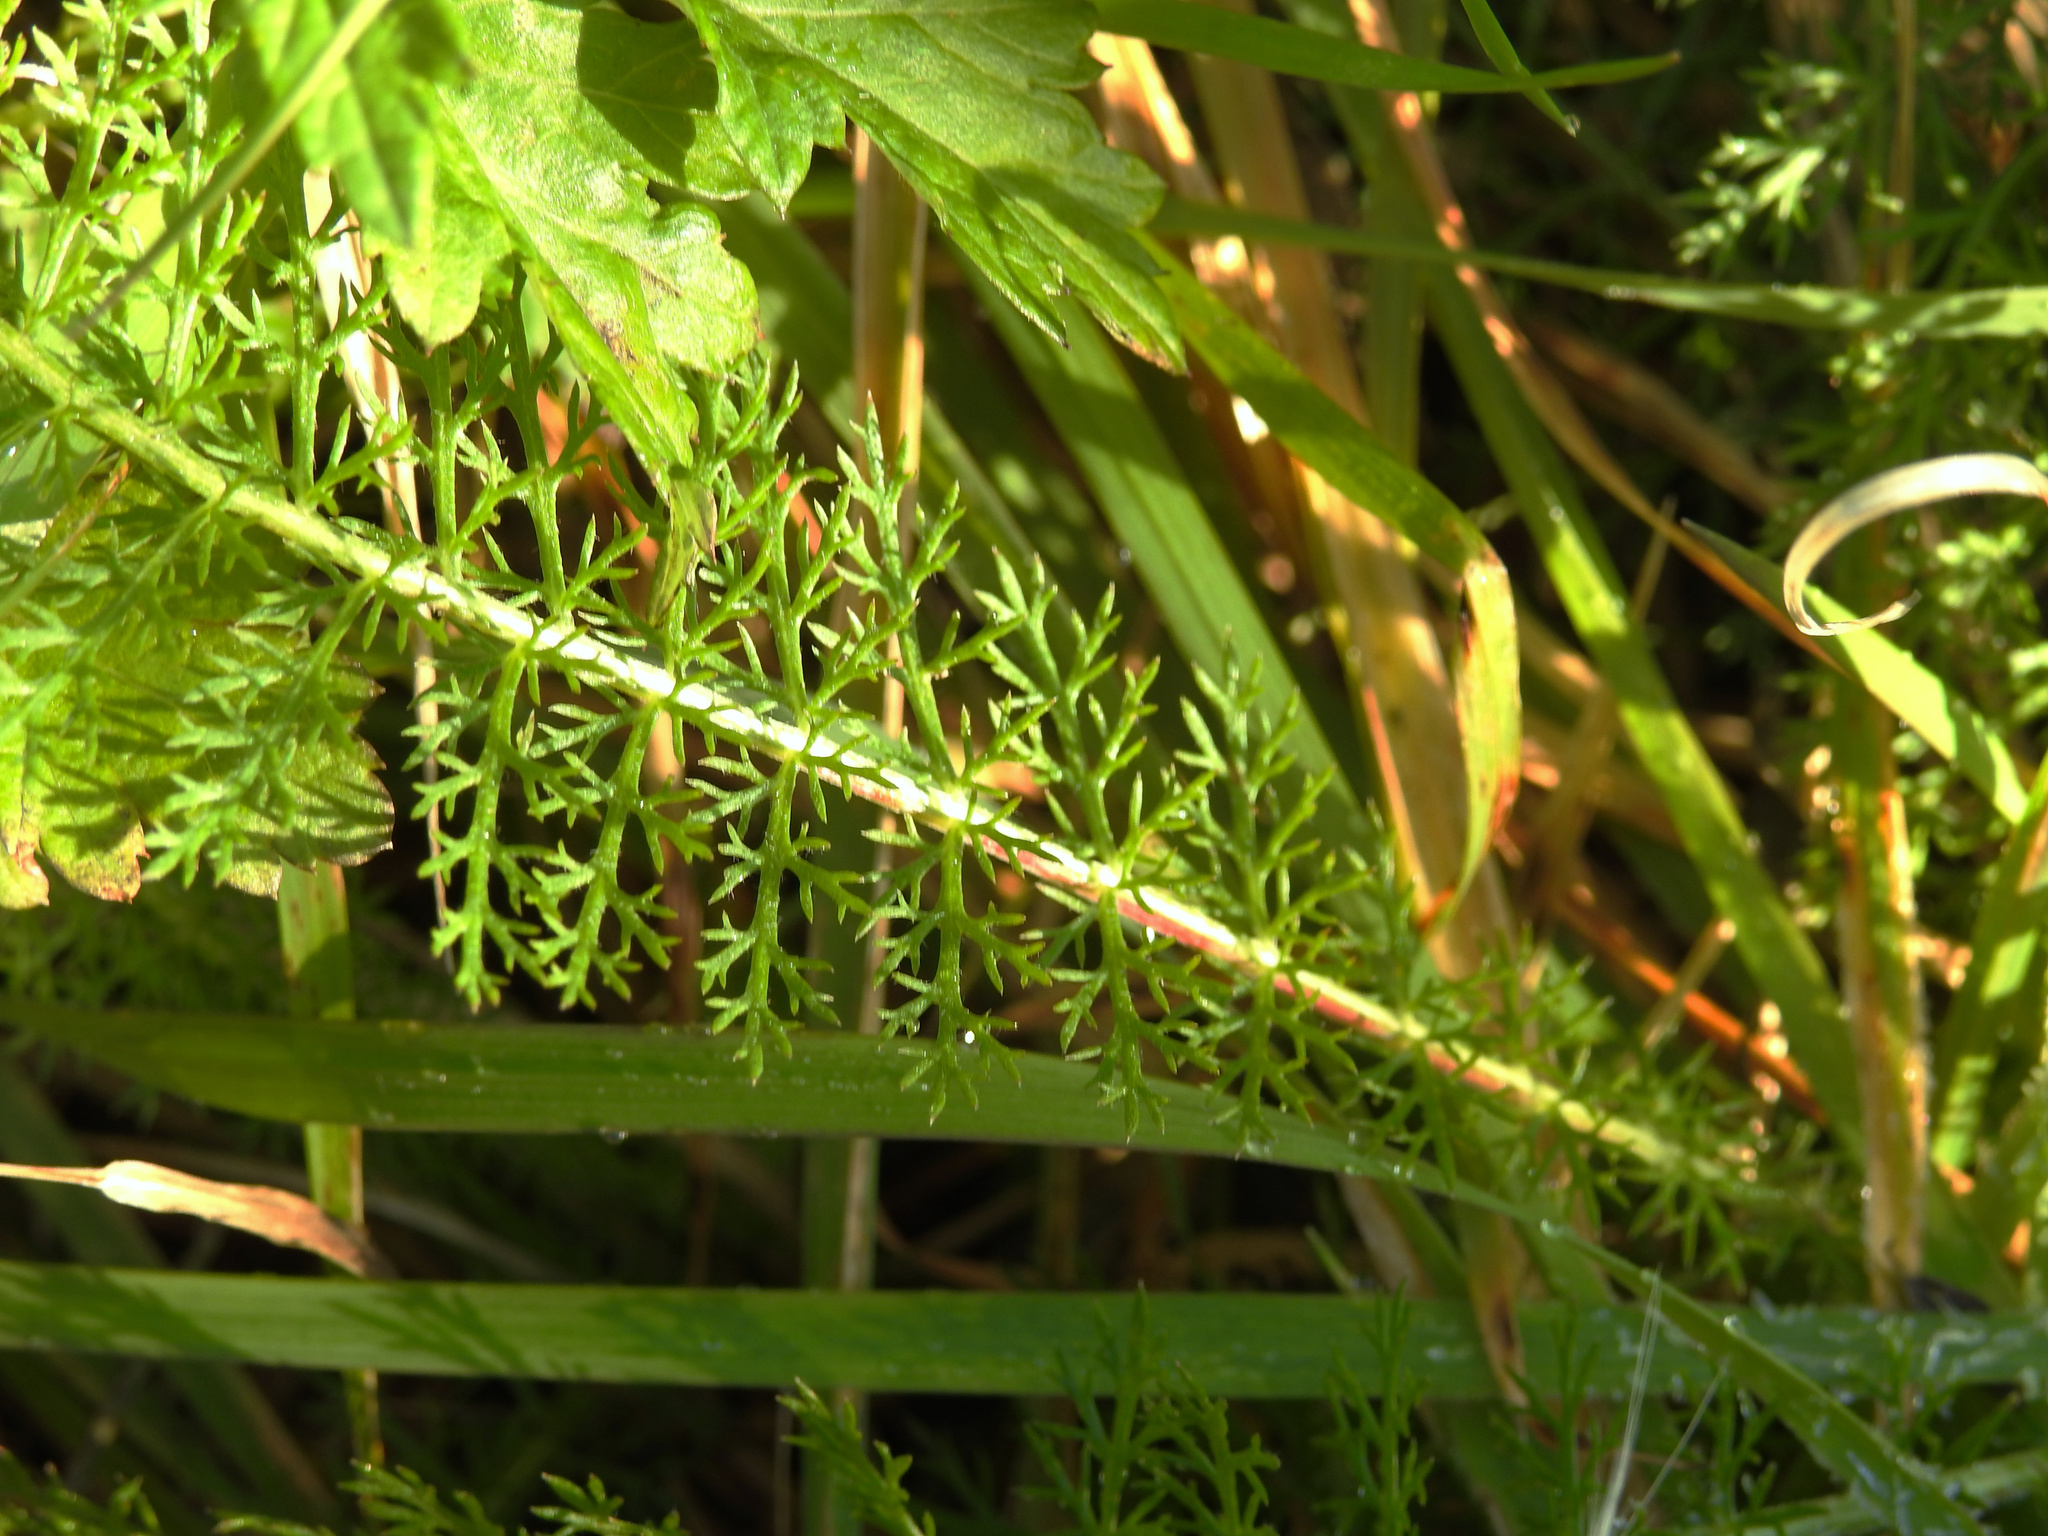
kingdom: Plantae
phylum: Tracheophyta
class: Magnoliopsida
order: Asterales
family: Asteraceae
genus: Achillea
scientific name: Achillea millefolium
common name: Yarrow
